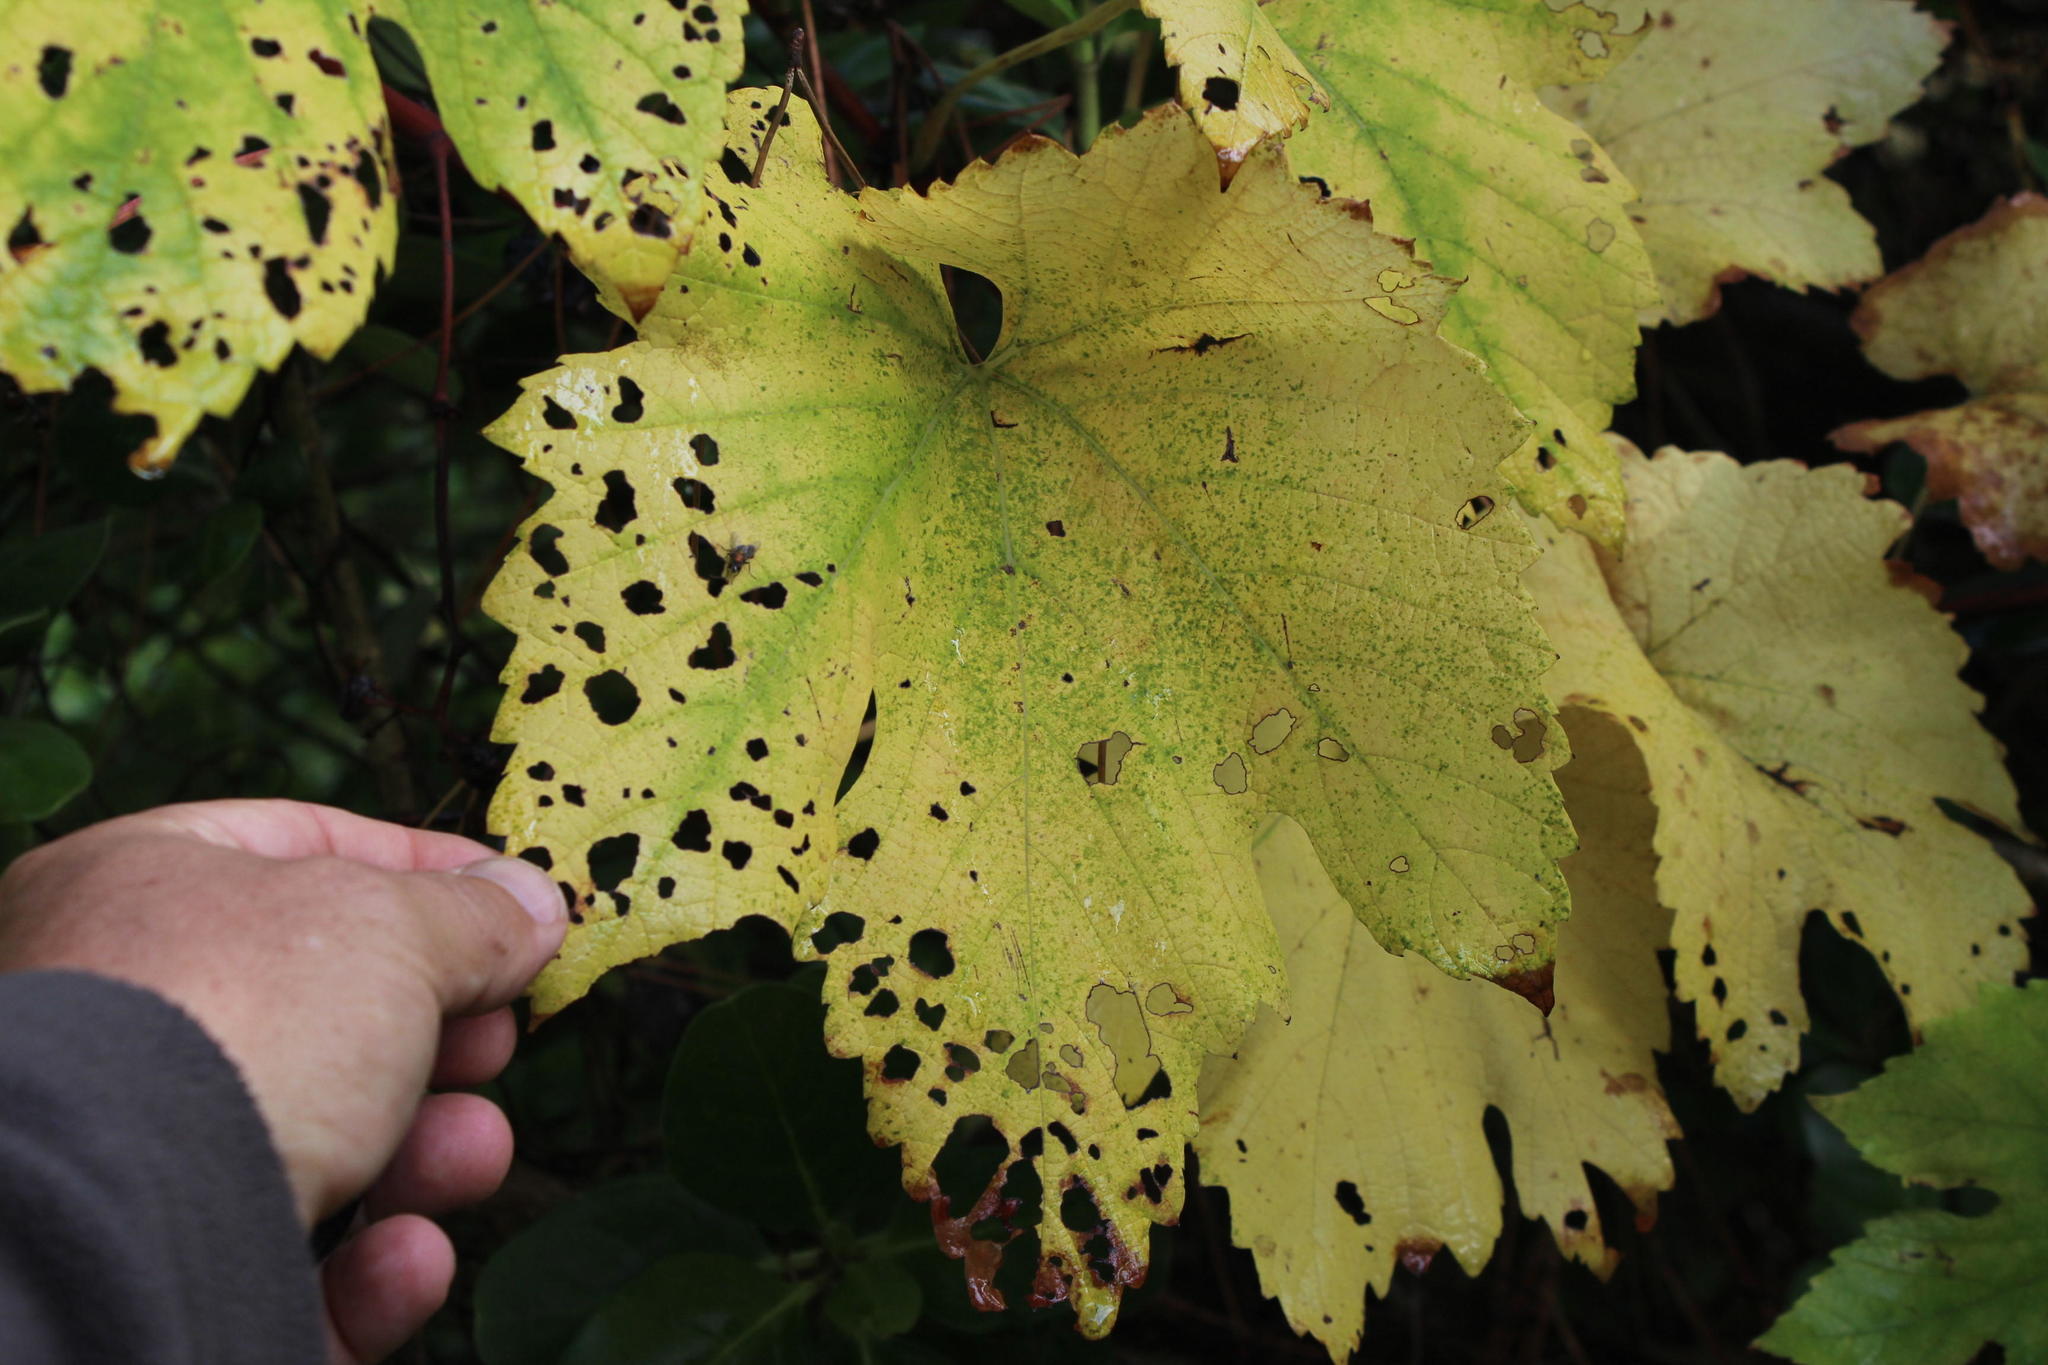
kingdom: Plantae
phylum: Tracheophyta
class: Magnoliopsida
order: Vitales
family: Vitaceae
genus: Vitis
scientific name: Vitis vinifera
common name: Grape-vine
